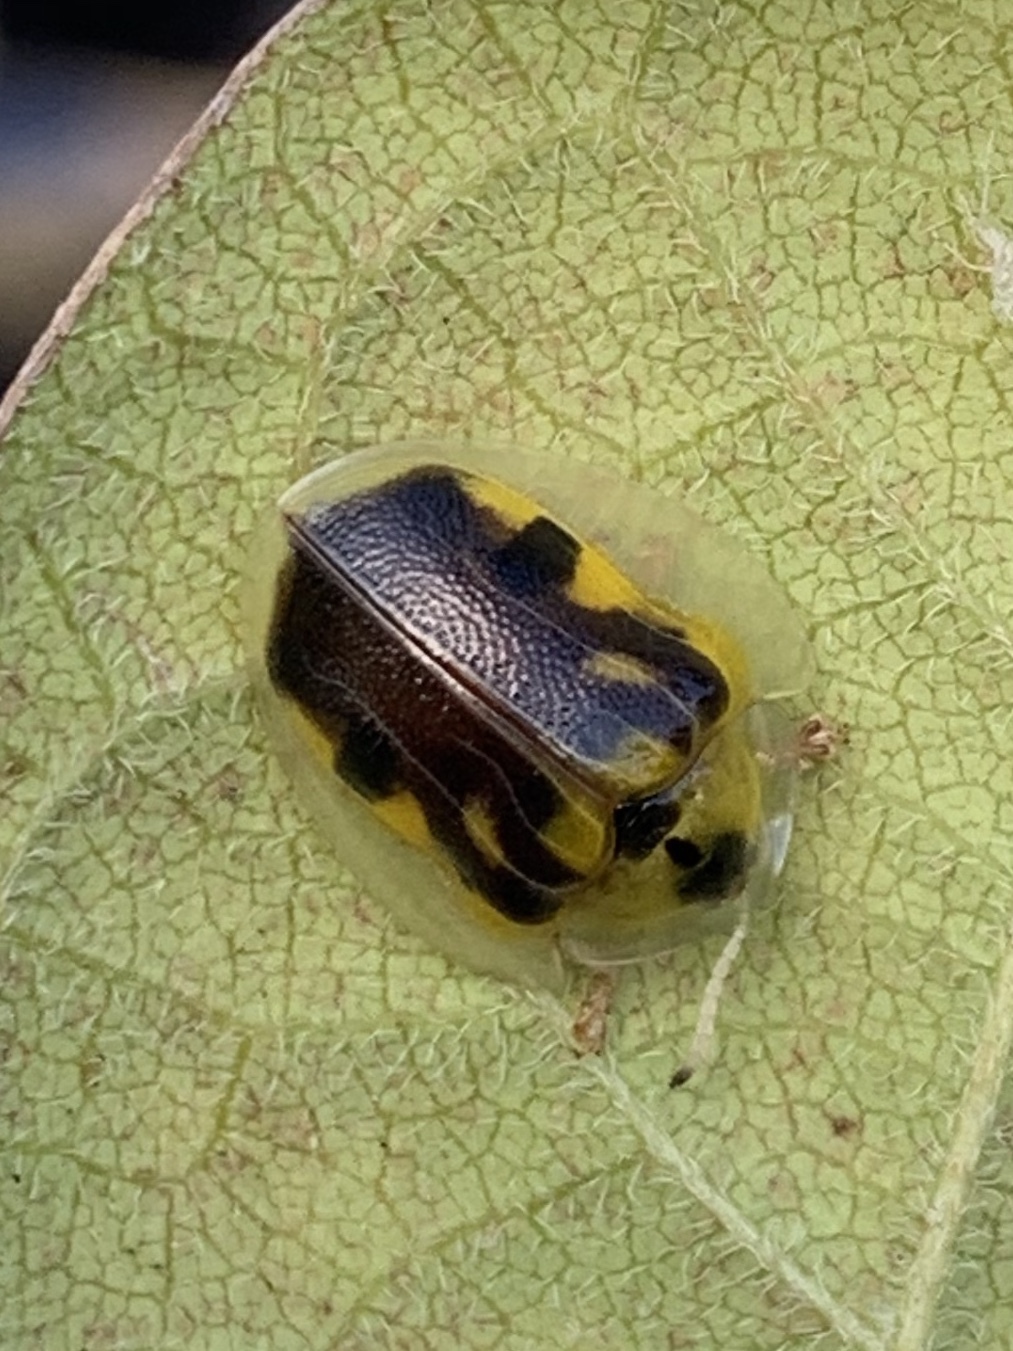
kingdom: Animalia
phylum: Arthropoda
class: Insecta
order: Coleoptera
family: Chrysomelidae
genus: Eurypepla
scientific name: Eurypepla calochroma
